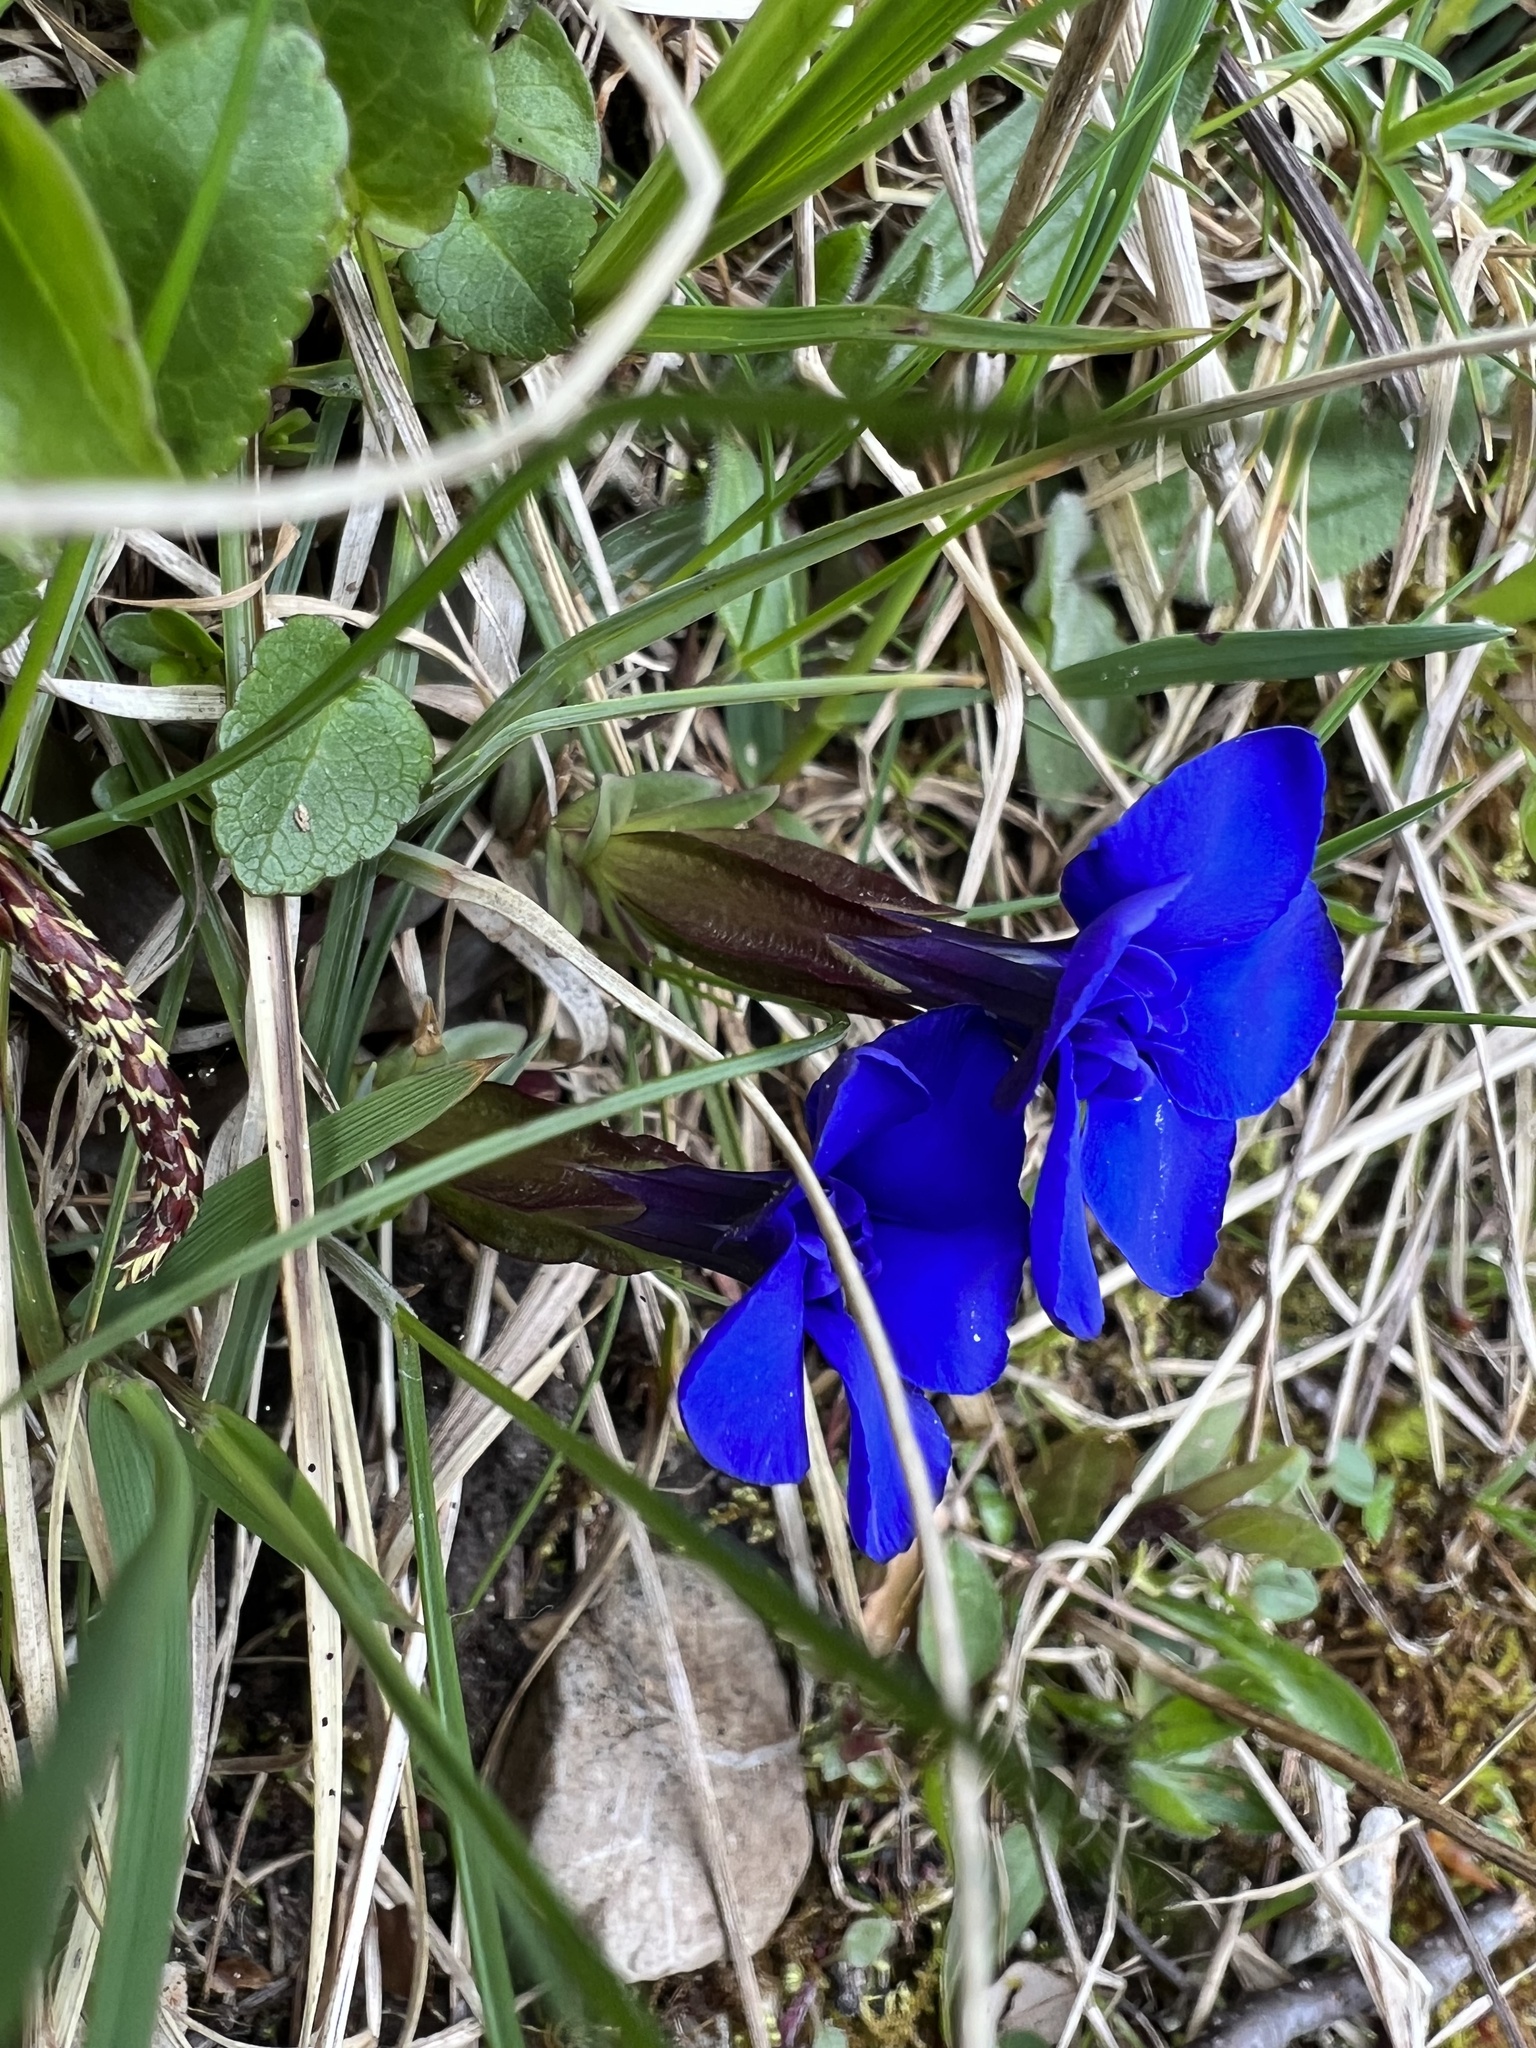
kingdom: Plantae
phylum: Tracheophyta
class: Magnoliopsida
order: Gentianales
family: Gentianaceae
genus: Gentiana
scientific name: Gentiana verna
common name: Spring gentian
